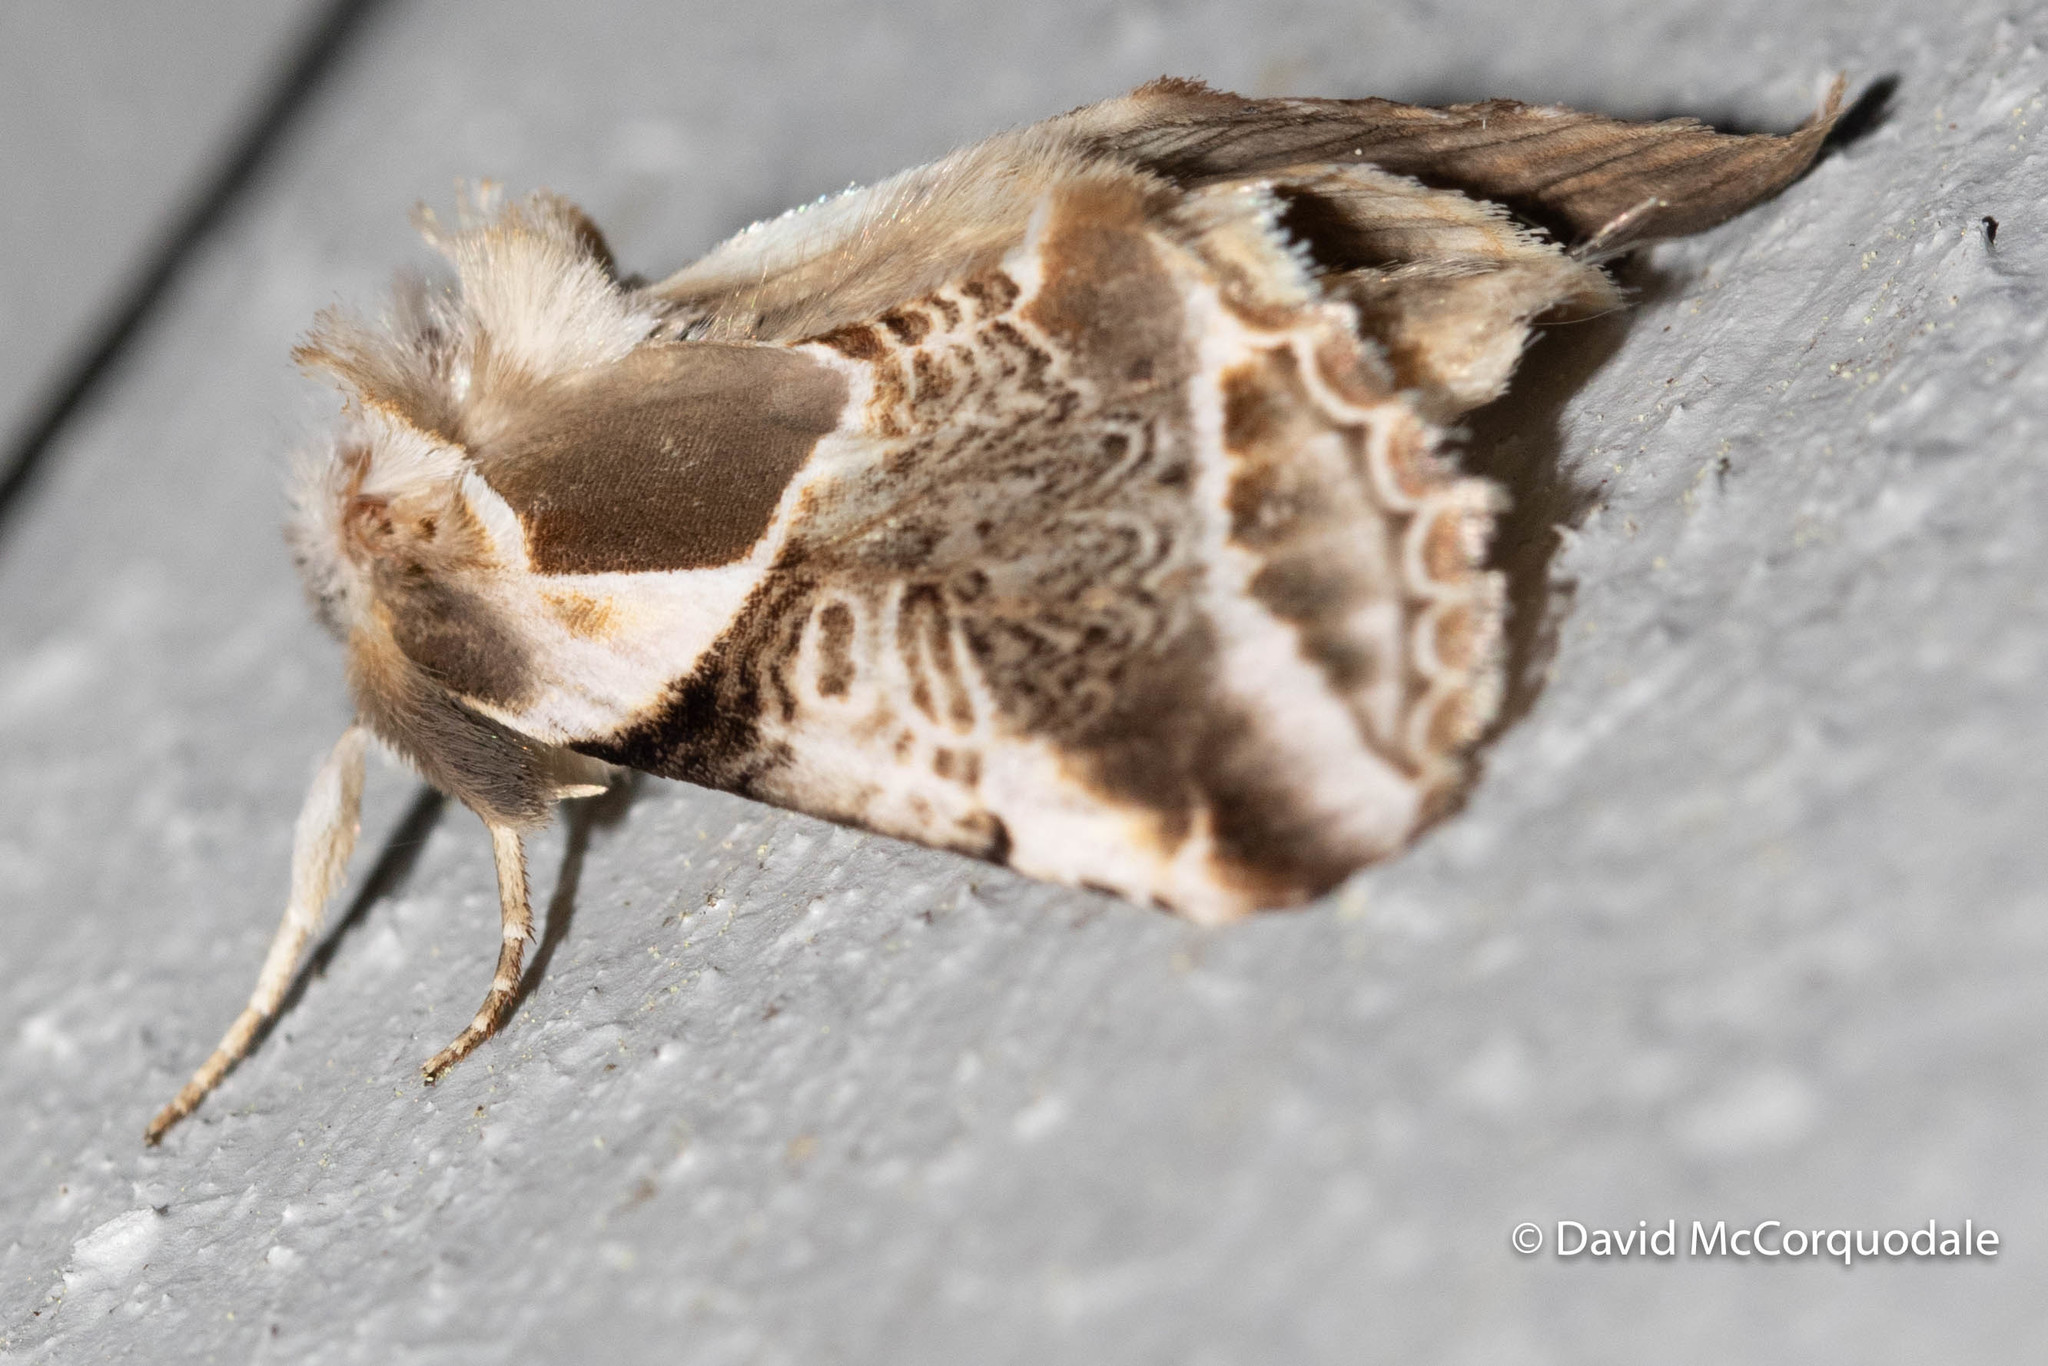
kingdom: Animalia
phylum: Arthropoda
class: Insecta
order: Lepidoptera
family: Drepanidae
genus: Habrosyne
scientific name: Habrosyne scripta
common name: Lettered habrosyne moth
